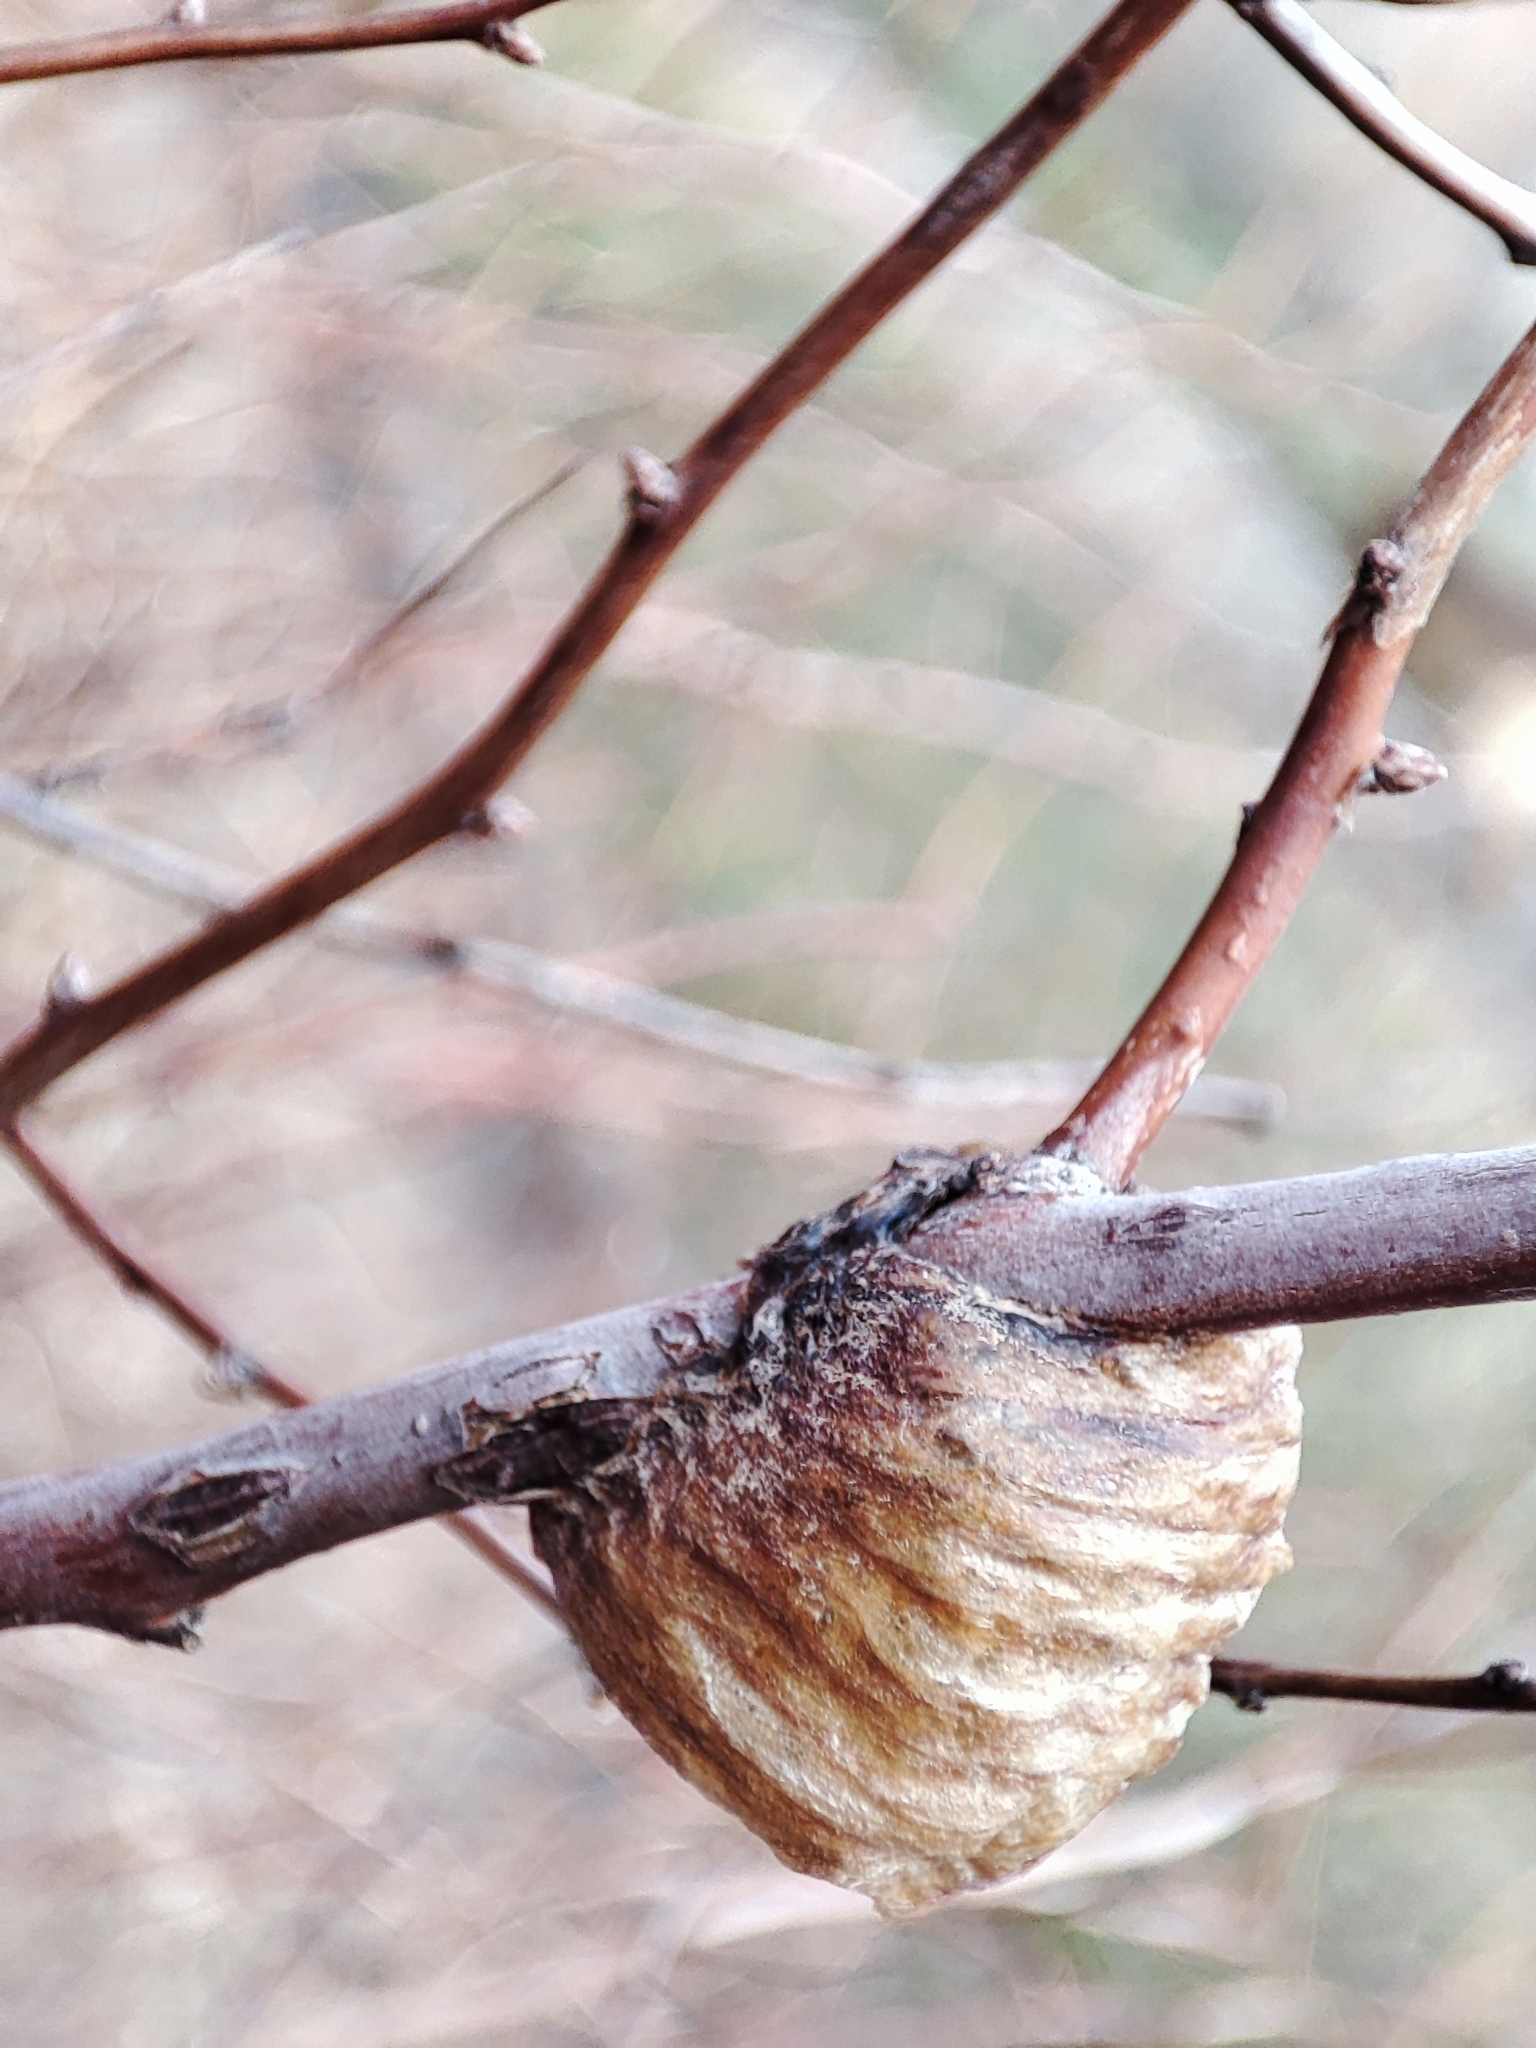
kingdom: Animalia
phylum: Arthropoda
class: Insecta
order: Mantodea
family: Mantidae
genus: Hierodula
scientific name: Hierodula transcaucasica
